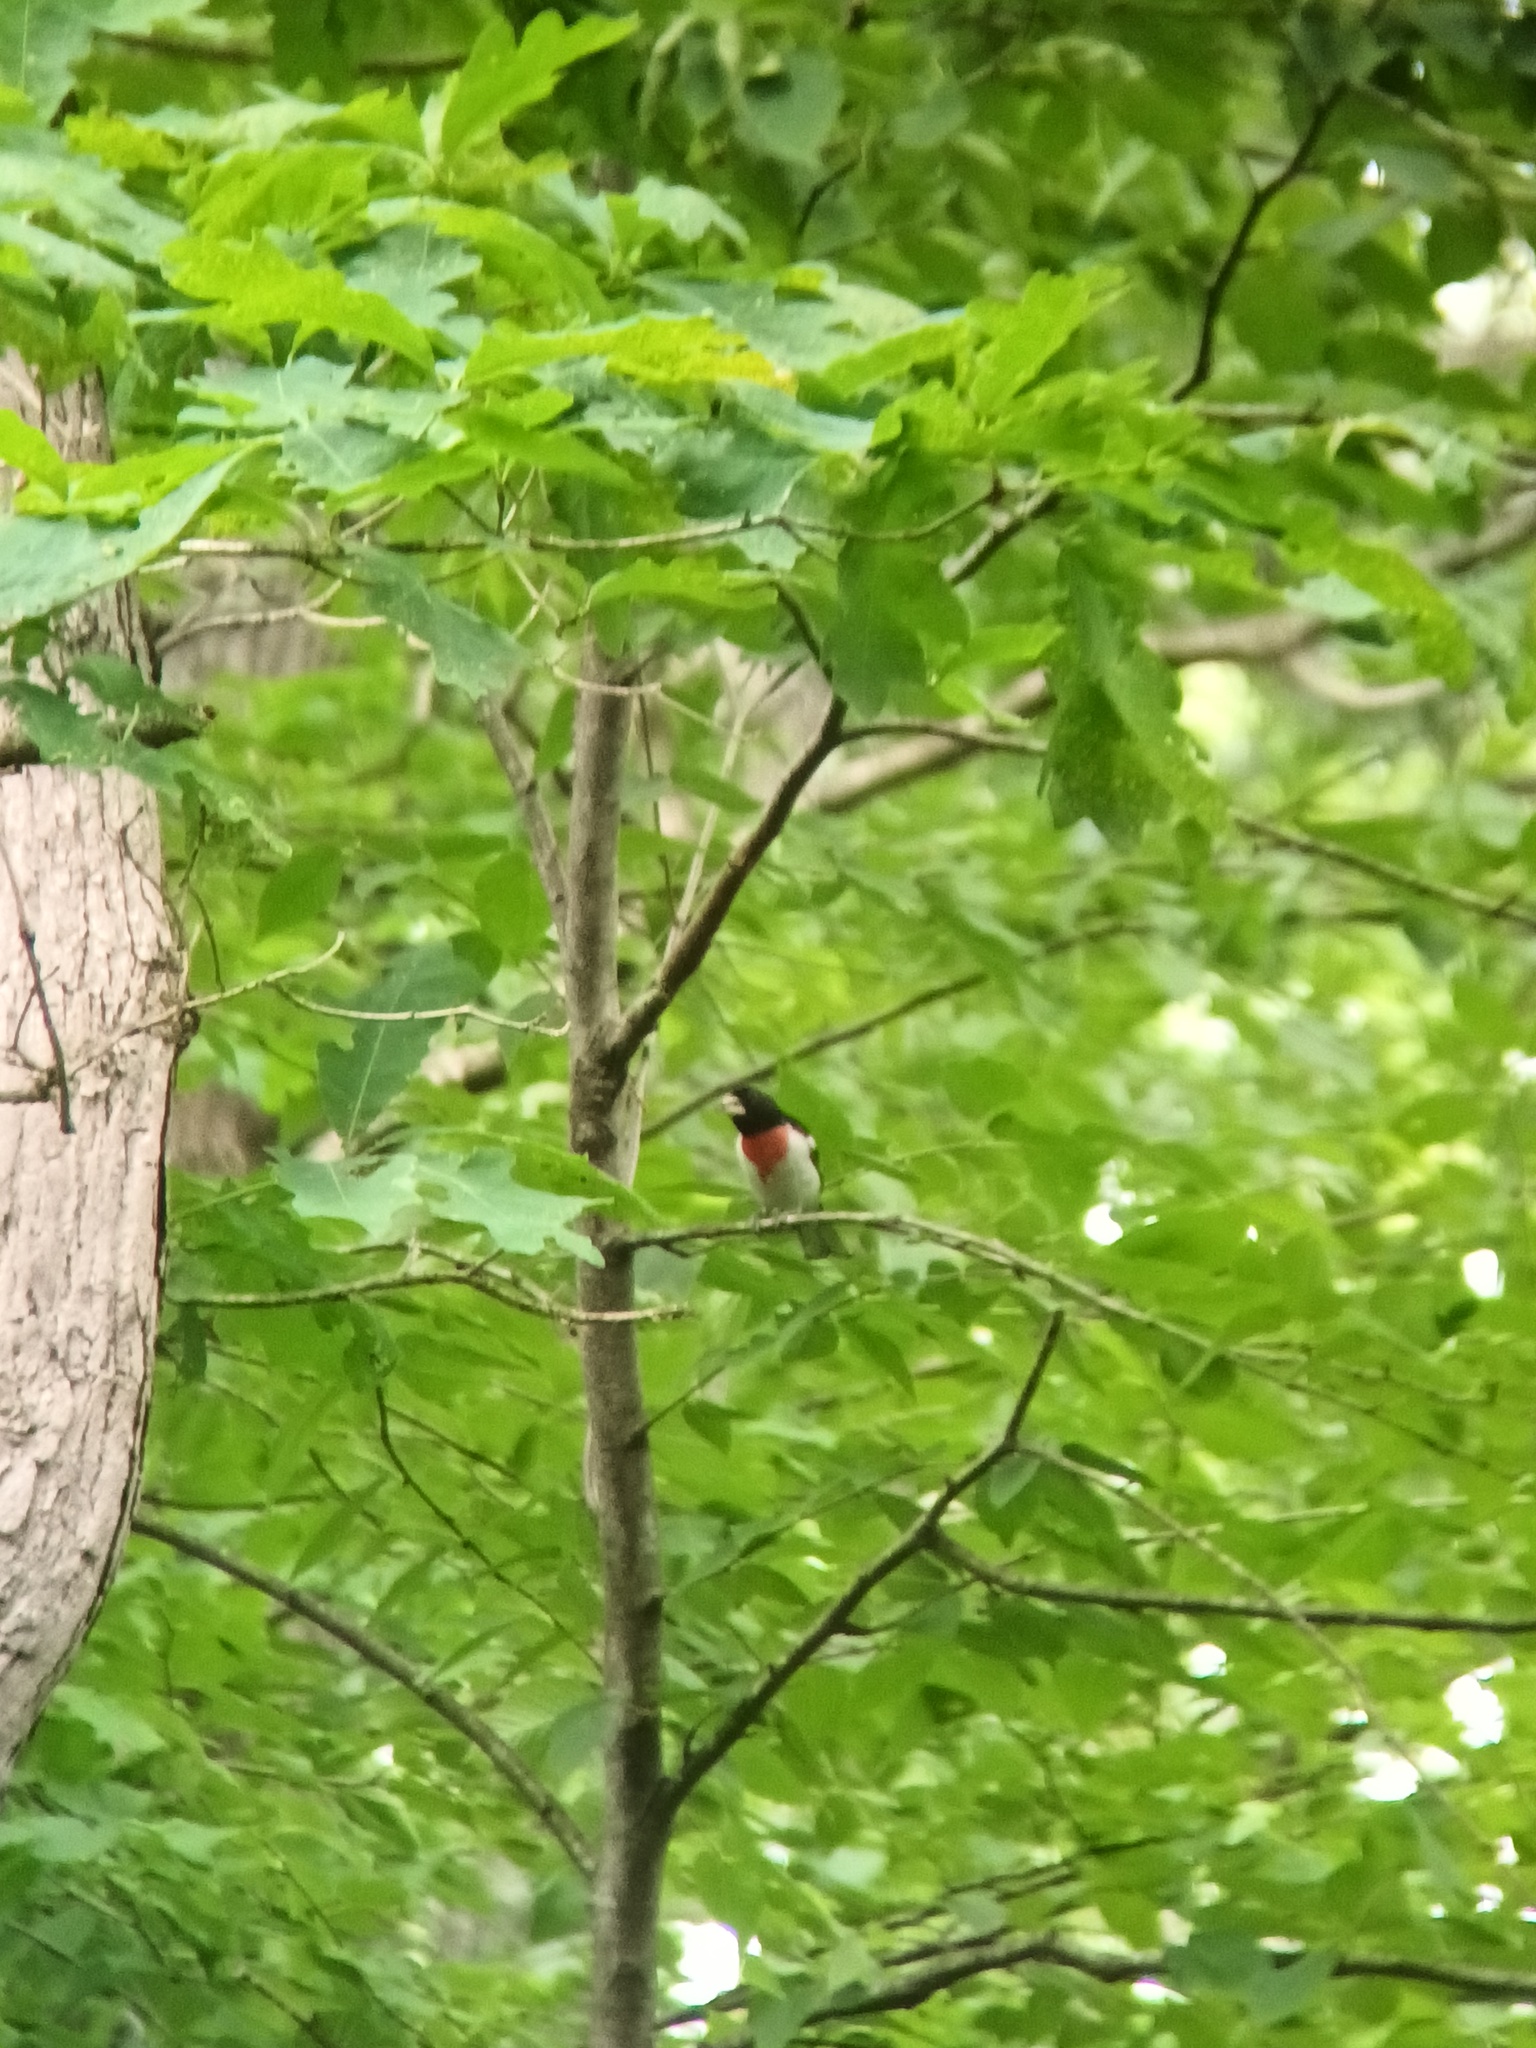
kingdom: Animalia
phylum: Chordata
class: Aves
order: Passeriformes
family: Cardinalidae
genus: Pheucticus
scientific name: Pheucticus ludovicianus
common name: Rose-breasted grosbeak
